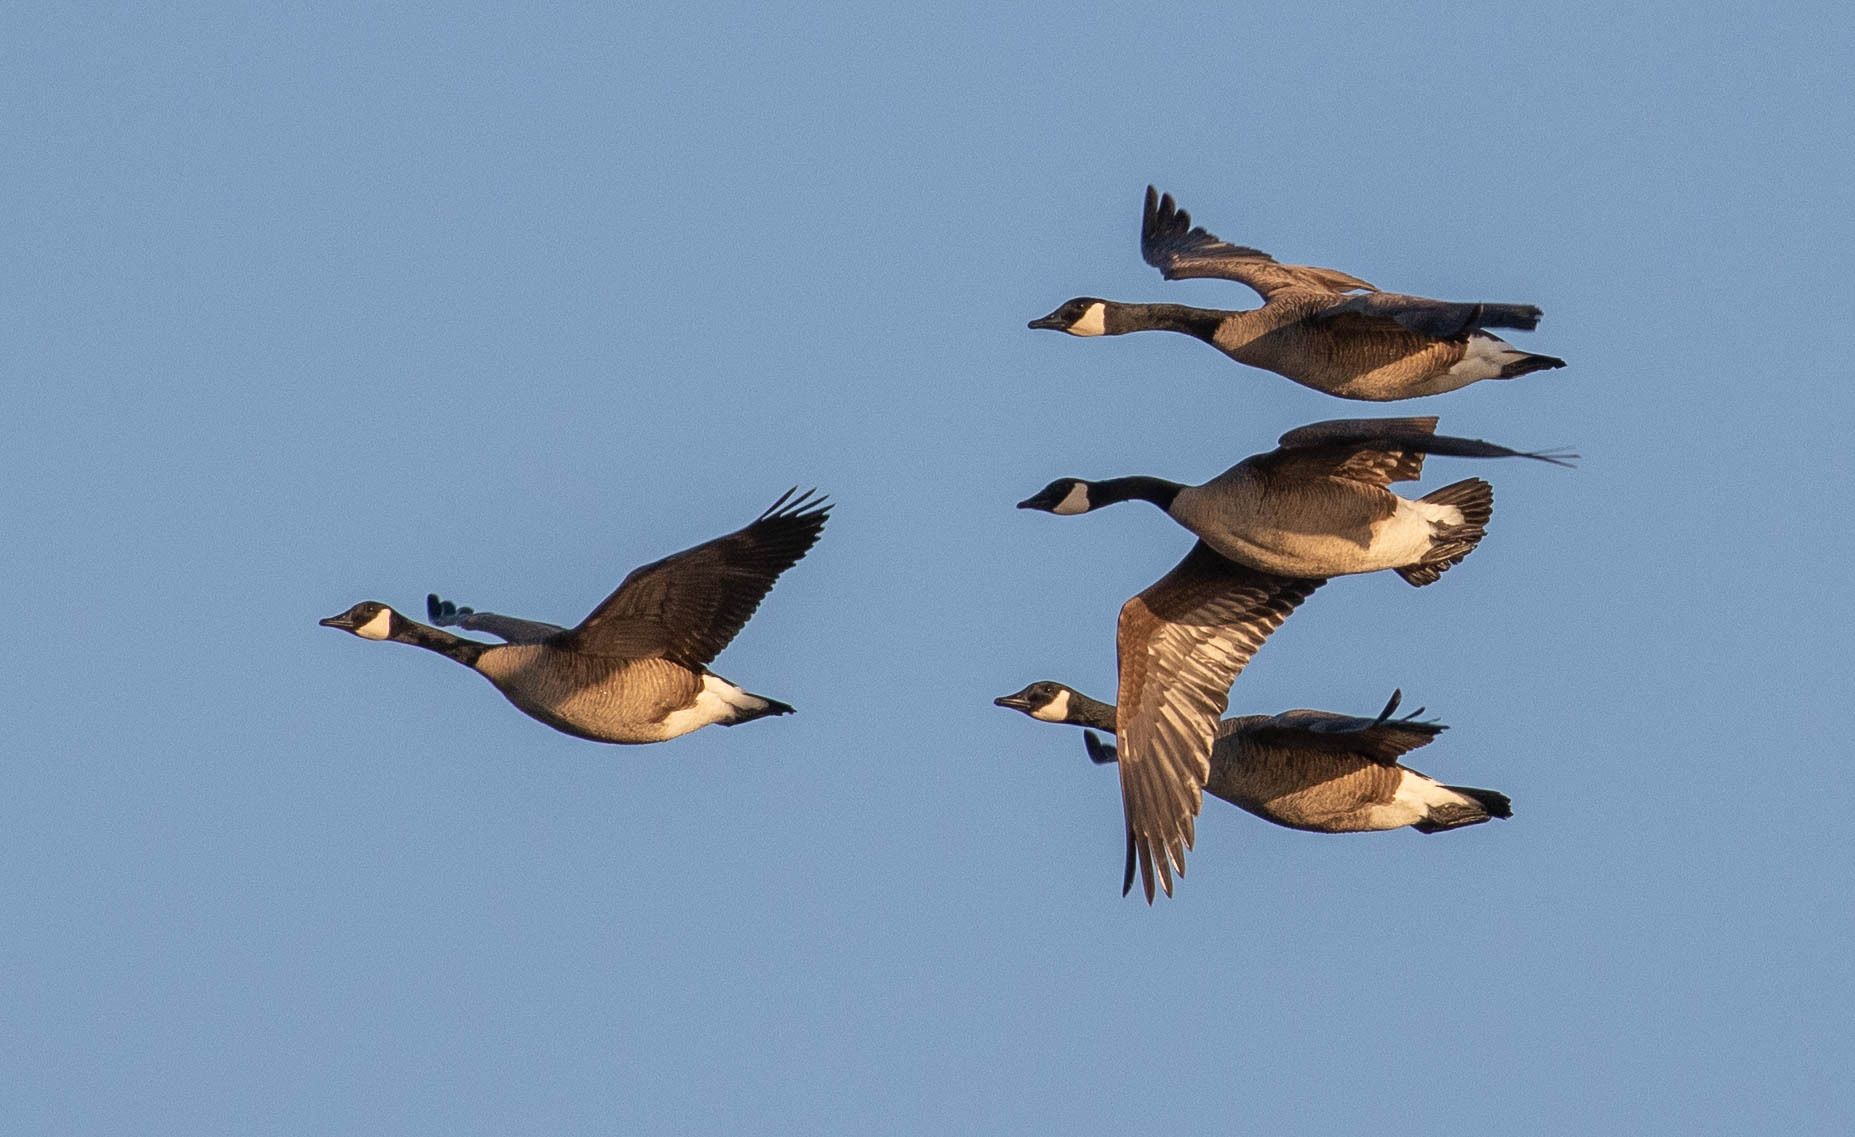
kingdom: Animalia
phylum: Chordata
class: Aves
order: Anseriformes
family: Anatidae
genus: Branta
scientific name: Branta canadensis
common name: Canada goose
